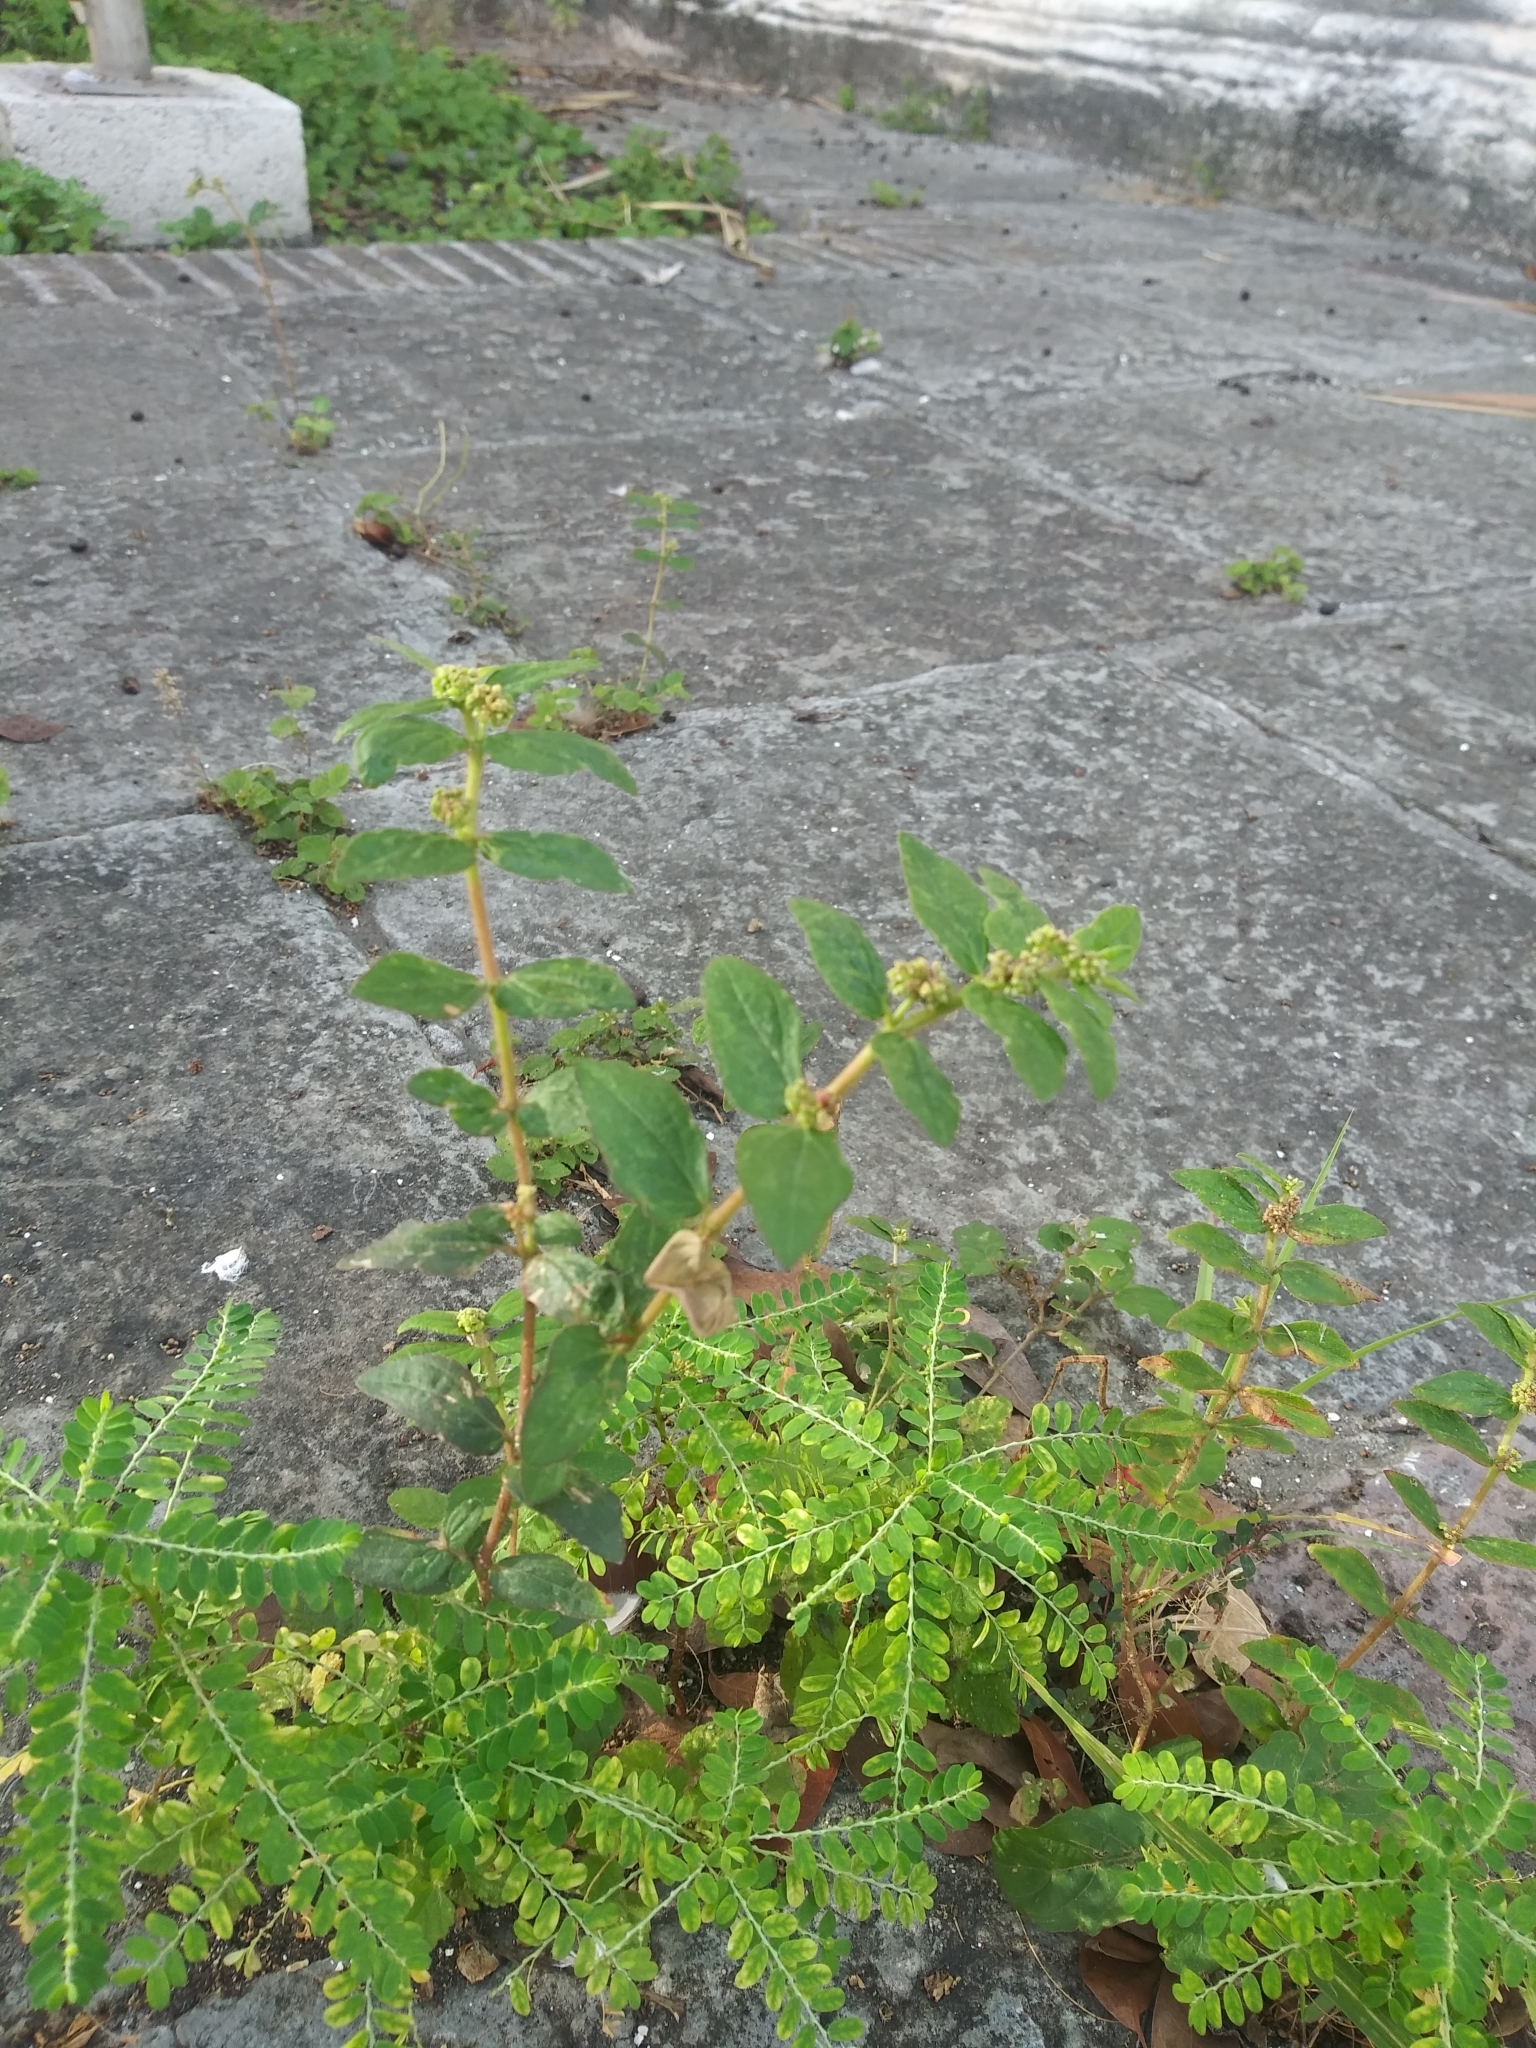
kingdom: Plantae
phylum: Tracheophyta
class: Magnoliopsida
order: Malpighiales
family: Euphorbiaceae
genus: Euphorbia
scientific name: Euphorbia hirta
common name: Pillpod sandmat
